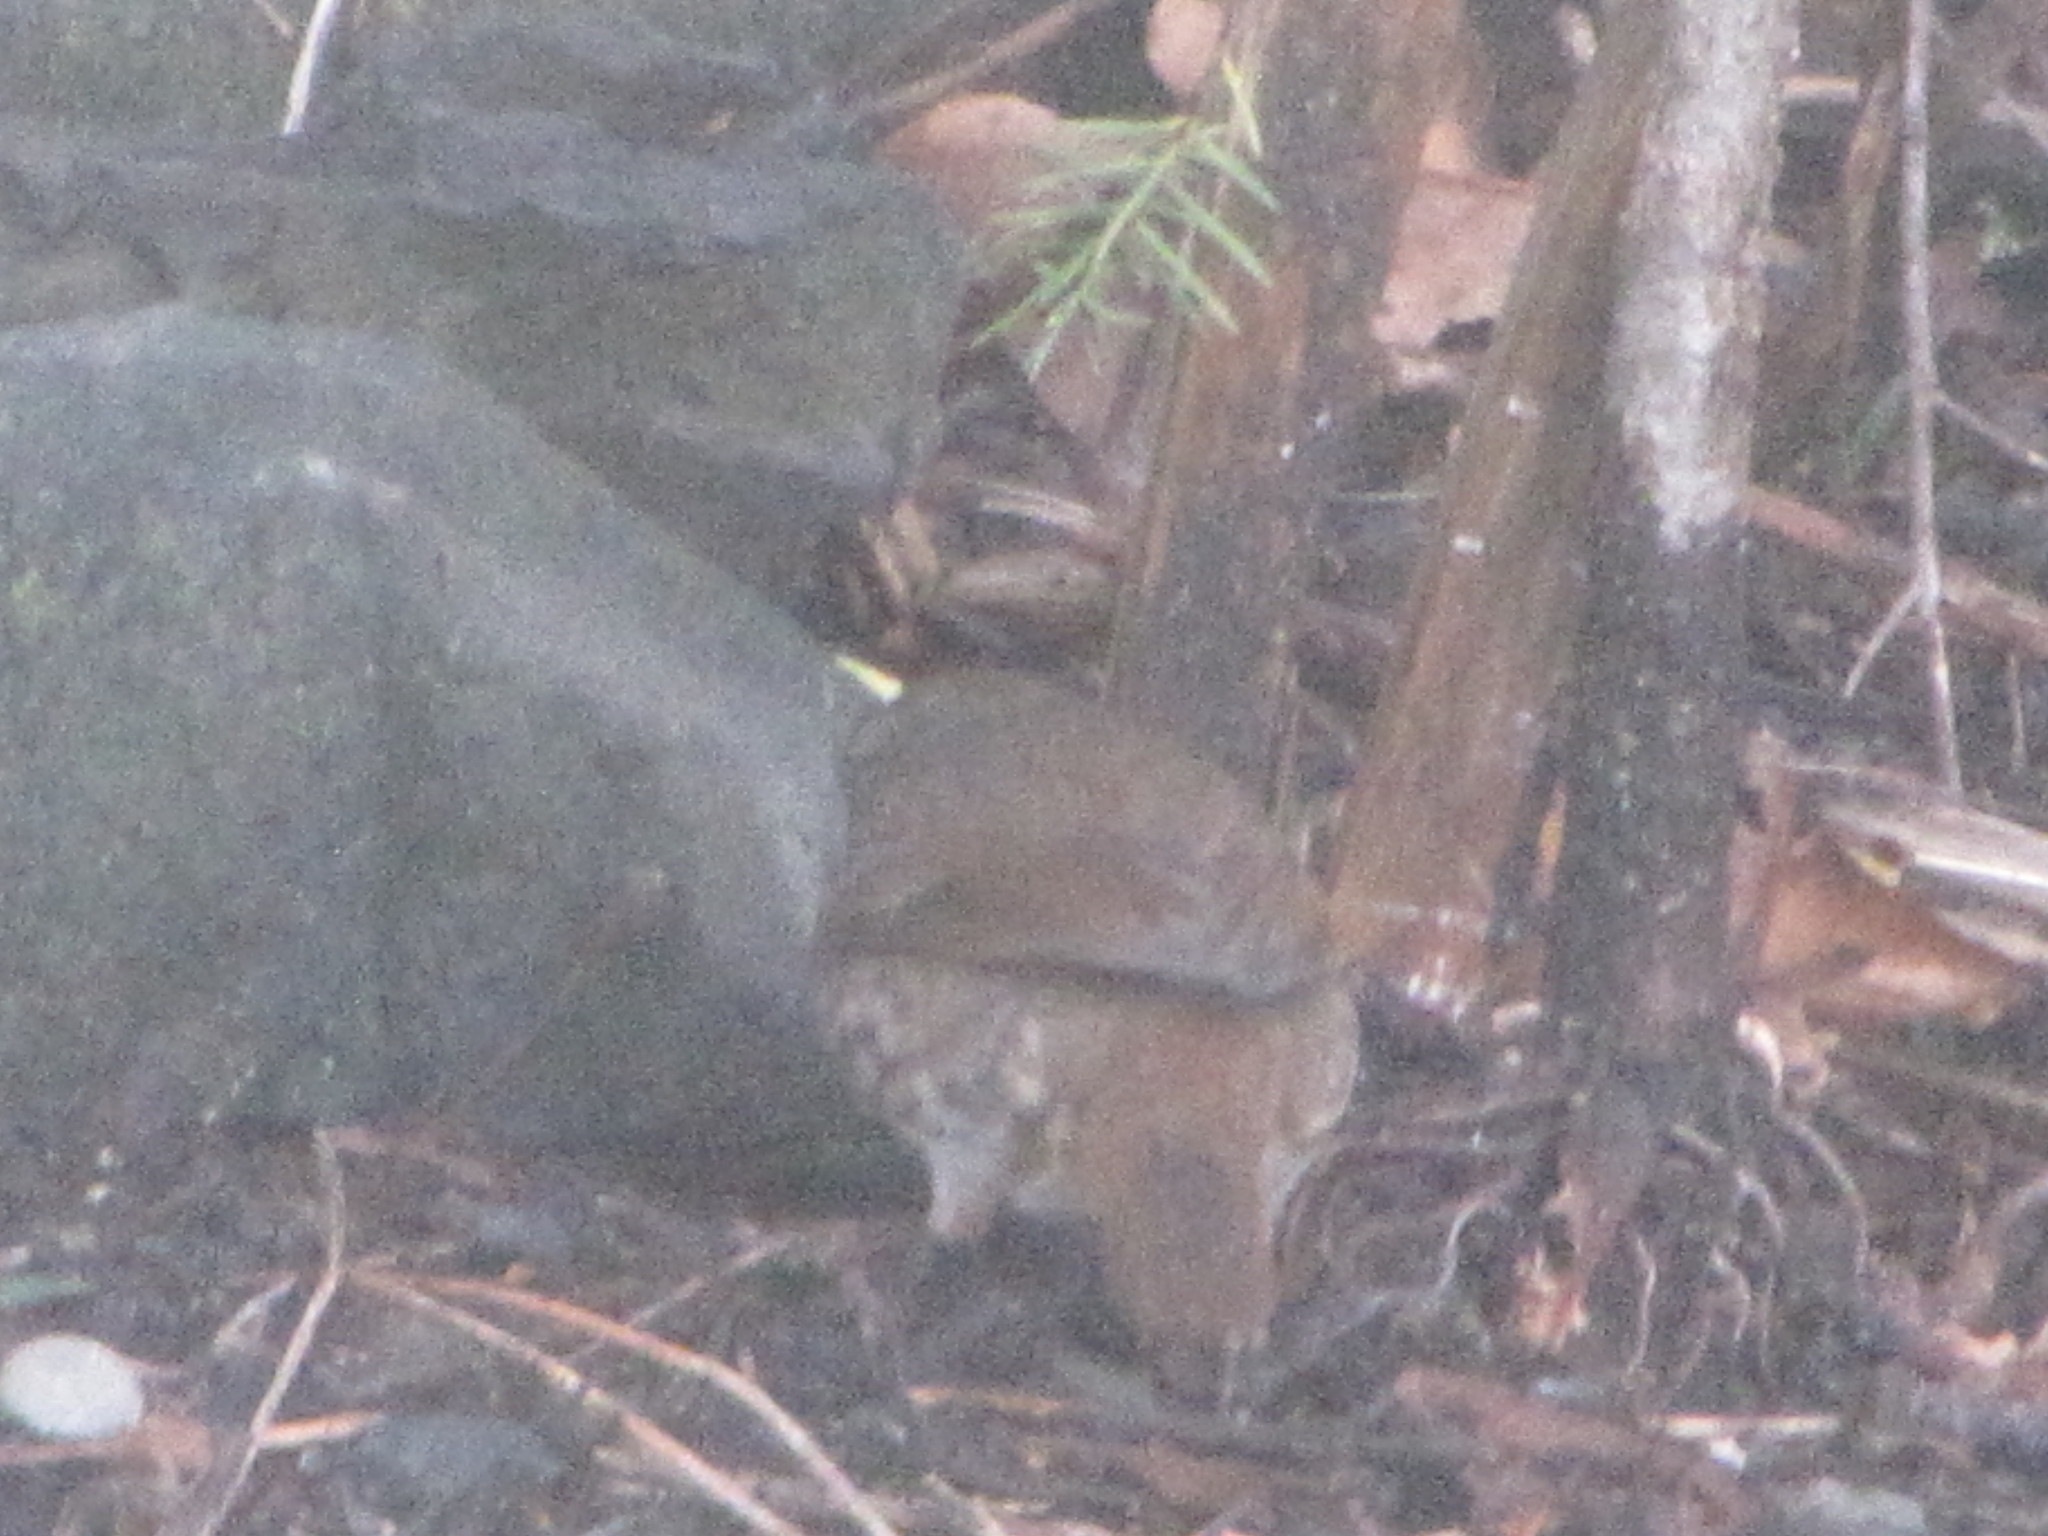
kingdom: Animalia
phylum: Chordata
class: Aves
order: Passeriformes
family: Passerellidae
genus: Passerella
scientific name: Passerella iliaca
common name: Fox sparrow
